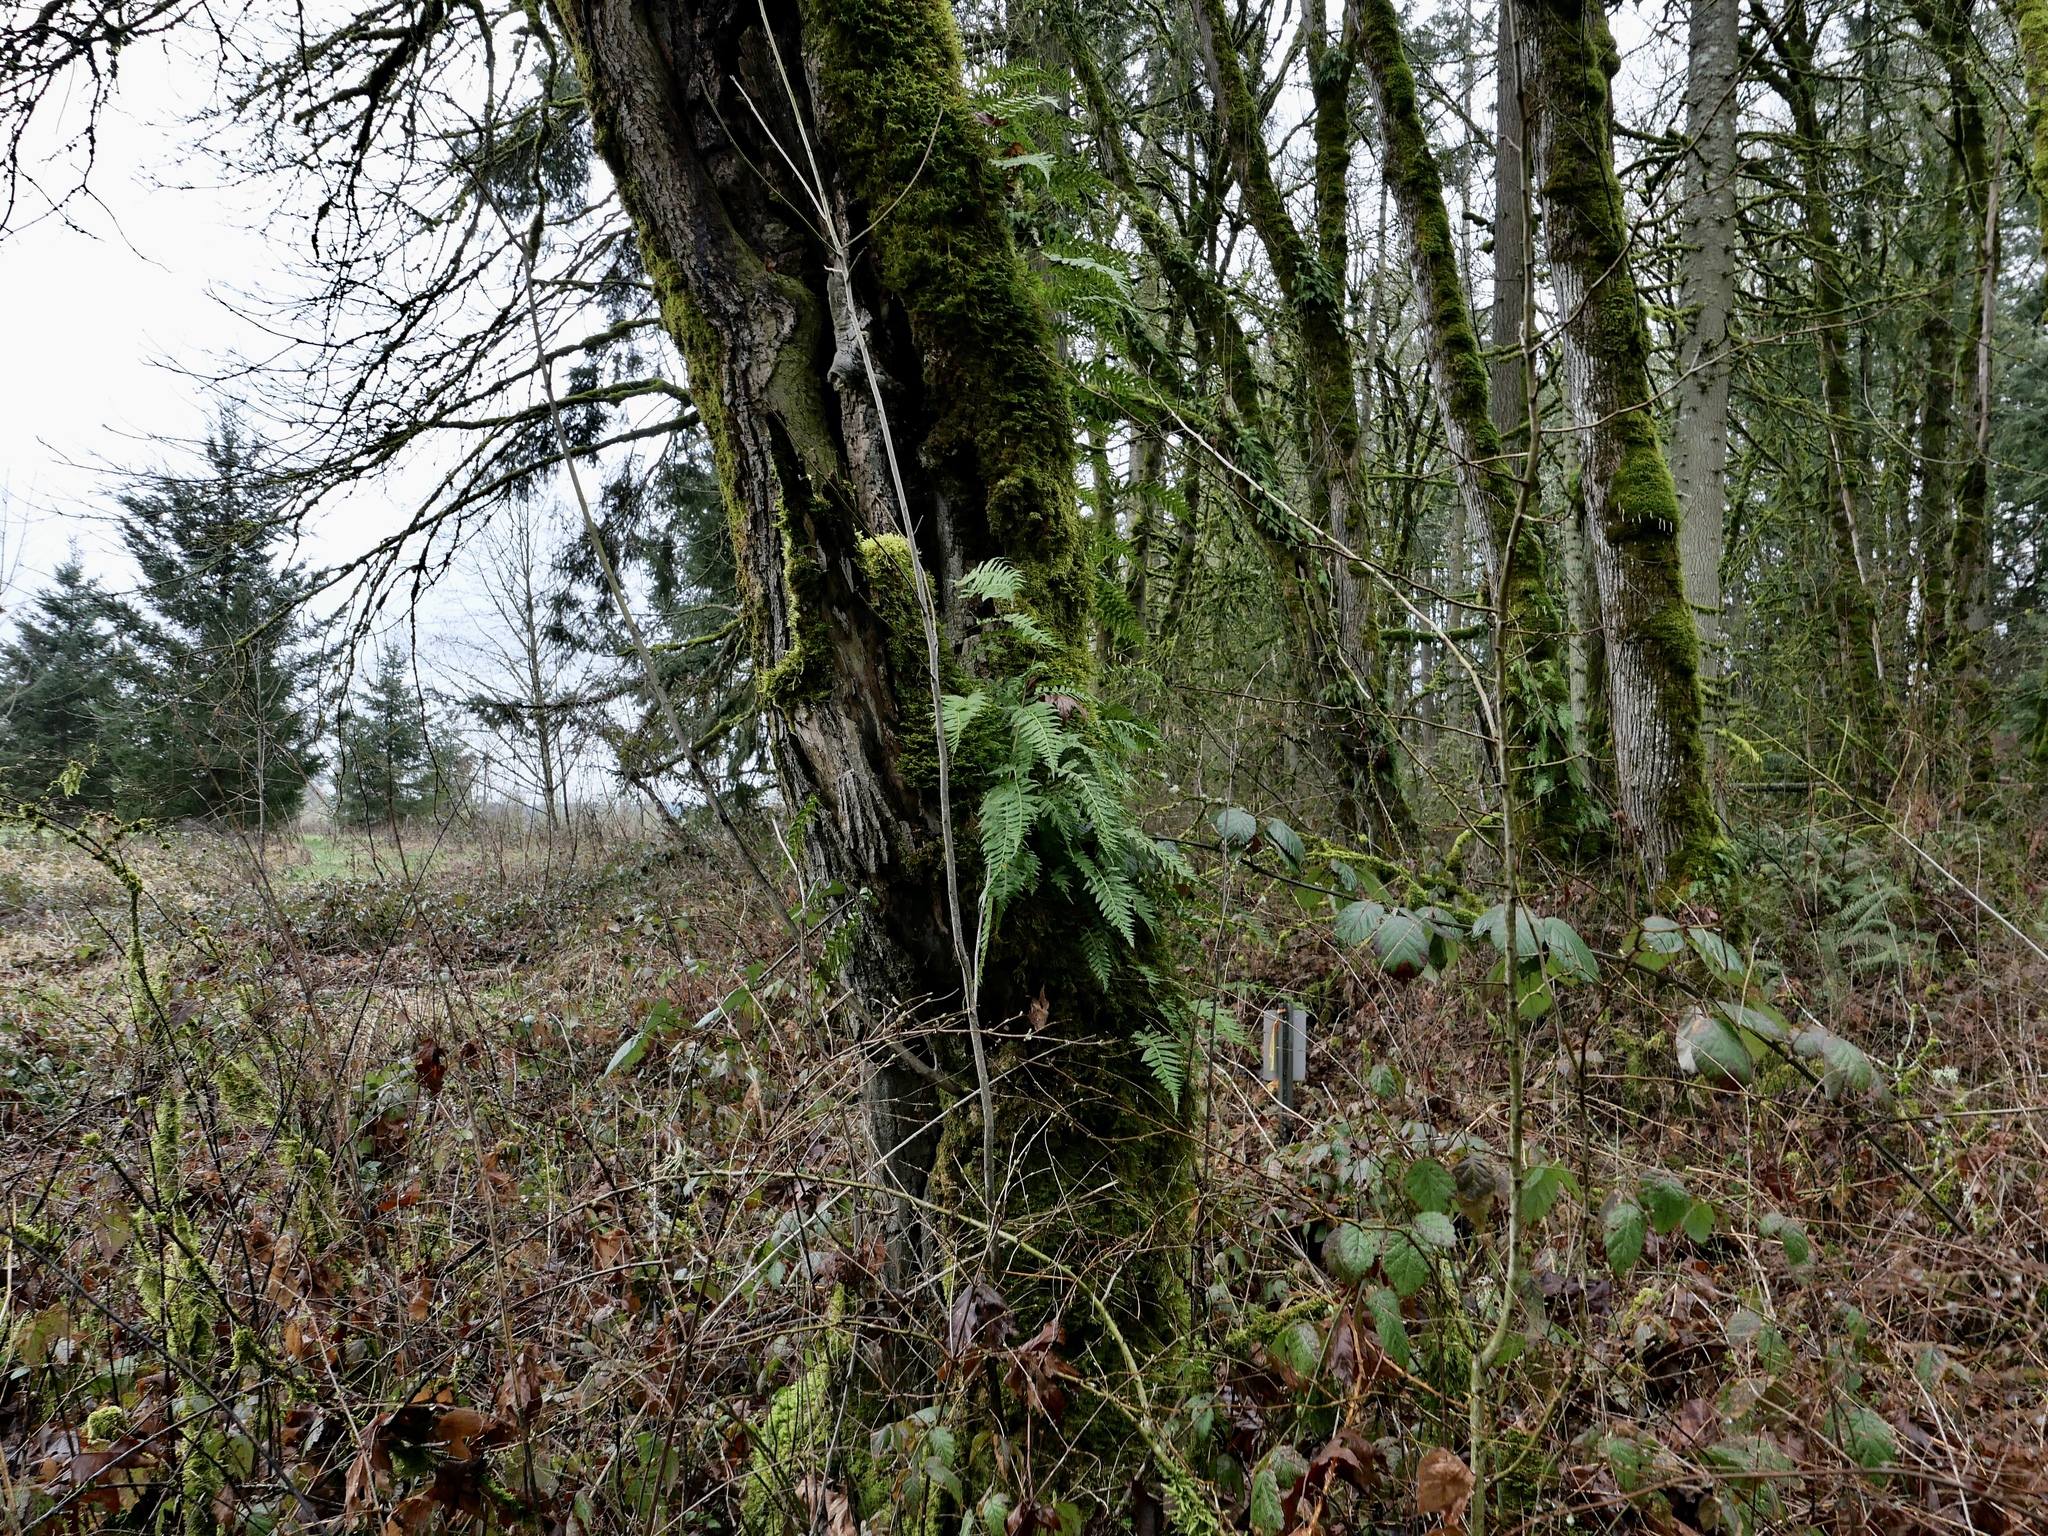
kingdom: Plantae
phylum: Tracheophyta
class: Polypodiopsida
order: Polypodiales
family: Polypodiaceae
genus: Polypodium
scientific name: Polypodium glycyrrhiza
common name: Licorice fern
